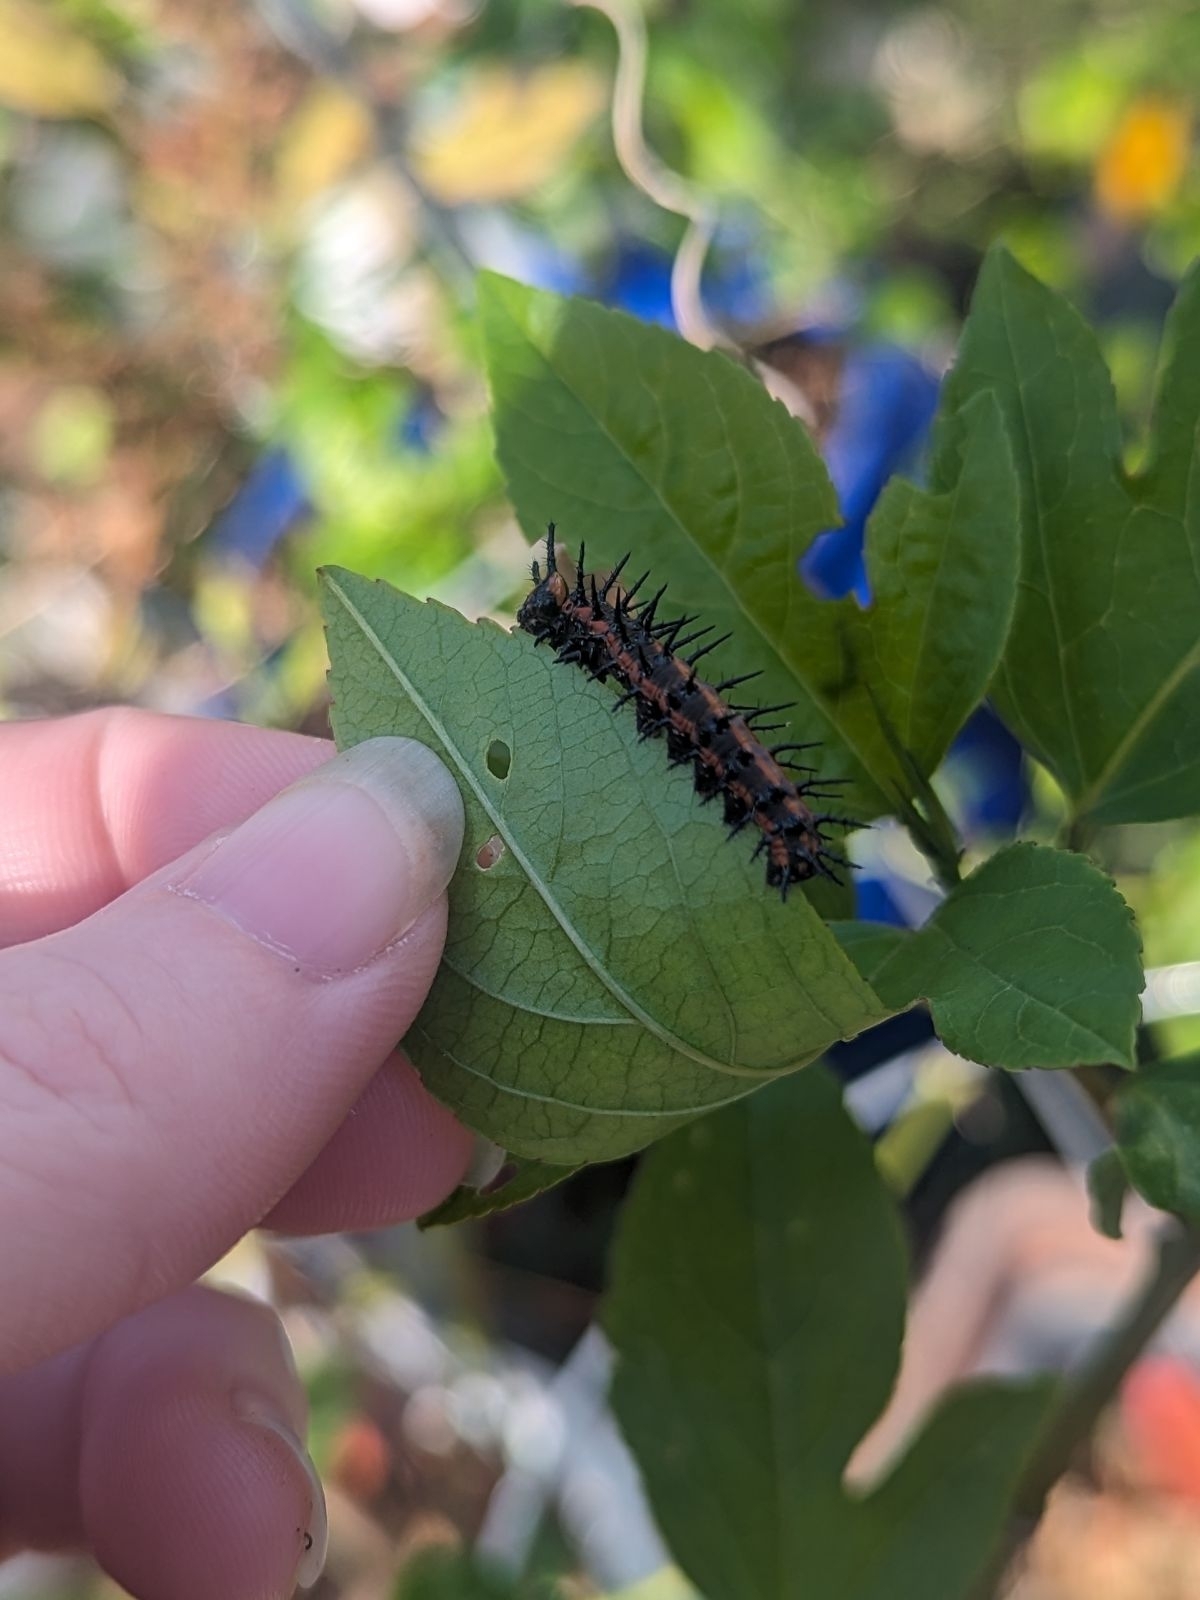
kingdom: Animalia
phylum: Arthropoda
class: Insecta
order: Lepidoptera
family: Nymphalidae
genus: Dione
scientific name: Dione vanillae
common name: Gulf fritillary
